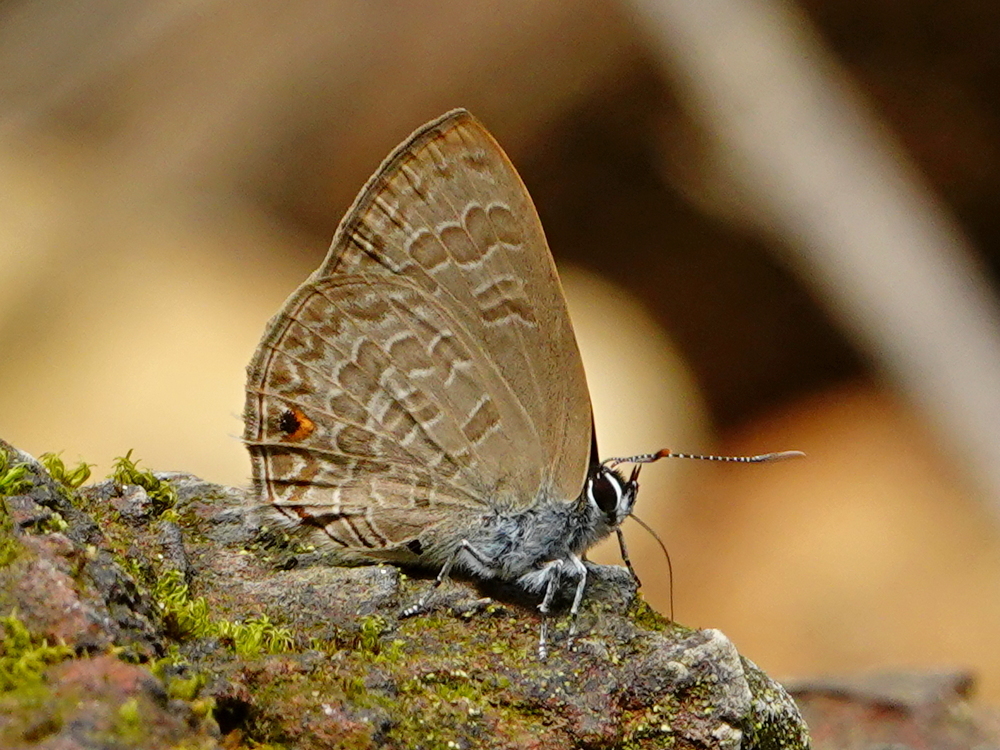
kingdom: Animalia
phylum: Arthropoda
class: Insecta
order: Lepidoptera
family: Lycaenidae
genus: Anthene
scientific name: Anthene emolus
